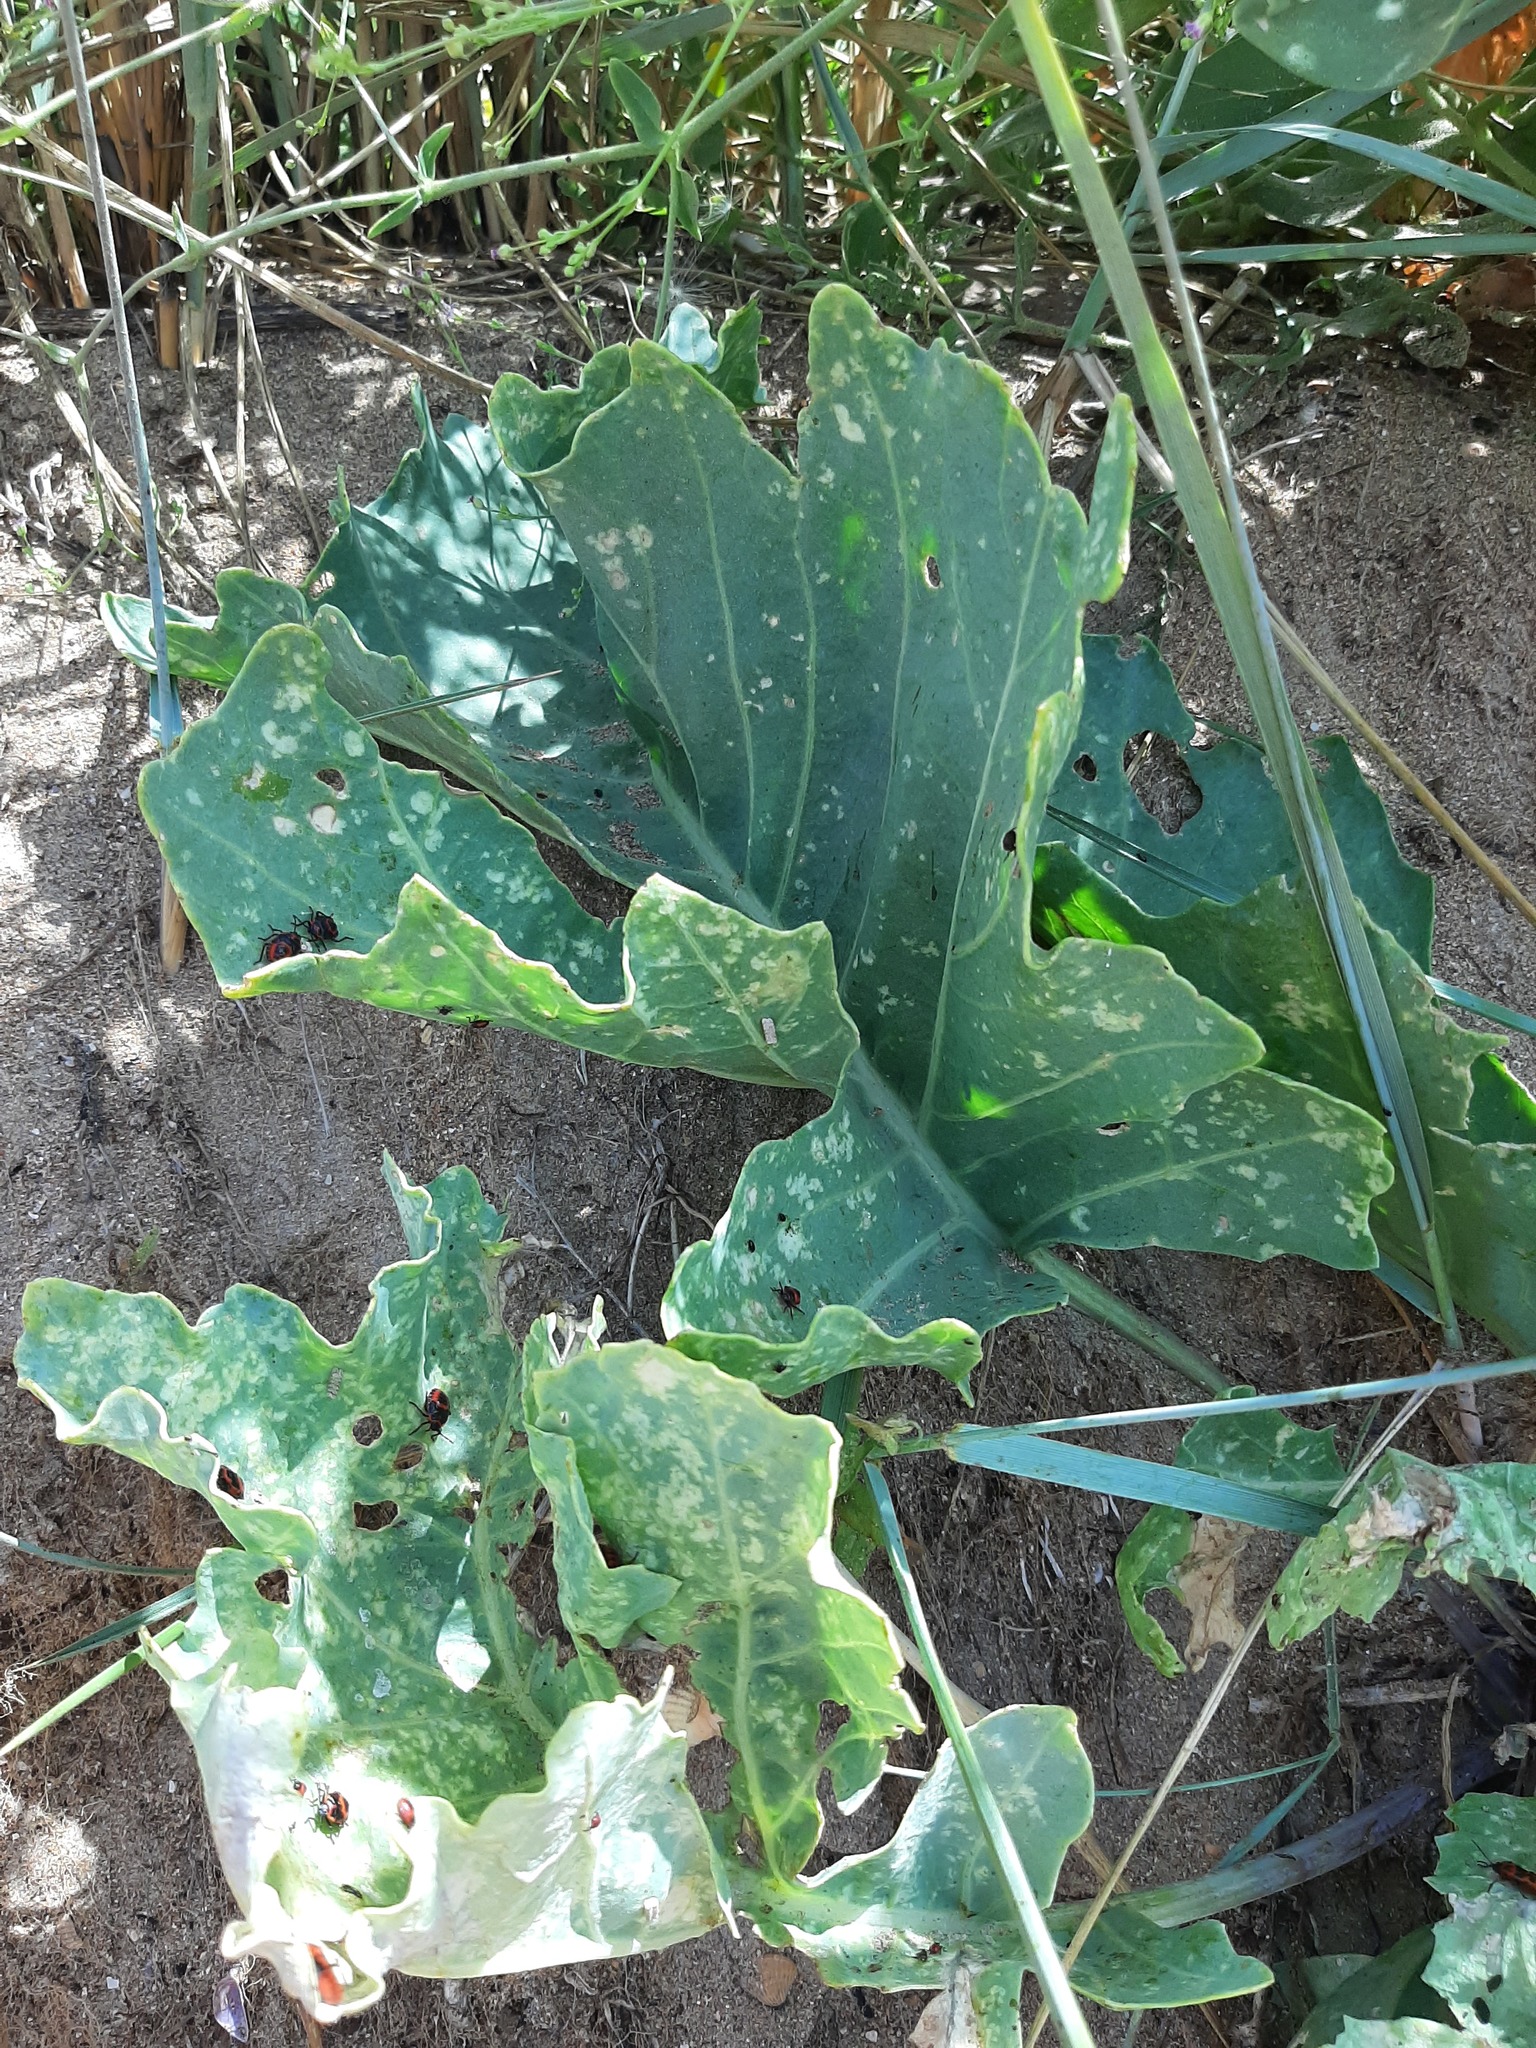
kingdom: Plantae
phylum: Tracheophyta
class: Magnoliopsida
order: Brassicales
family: Brassicaceae
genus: Crambe
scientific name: Crambe maritima
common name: Sea-kale
